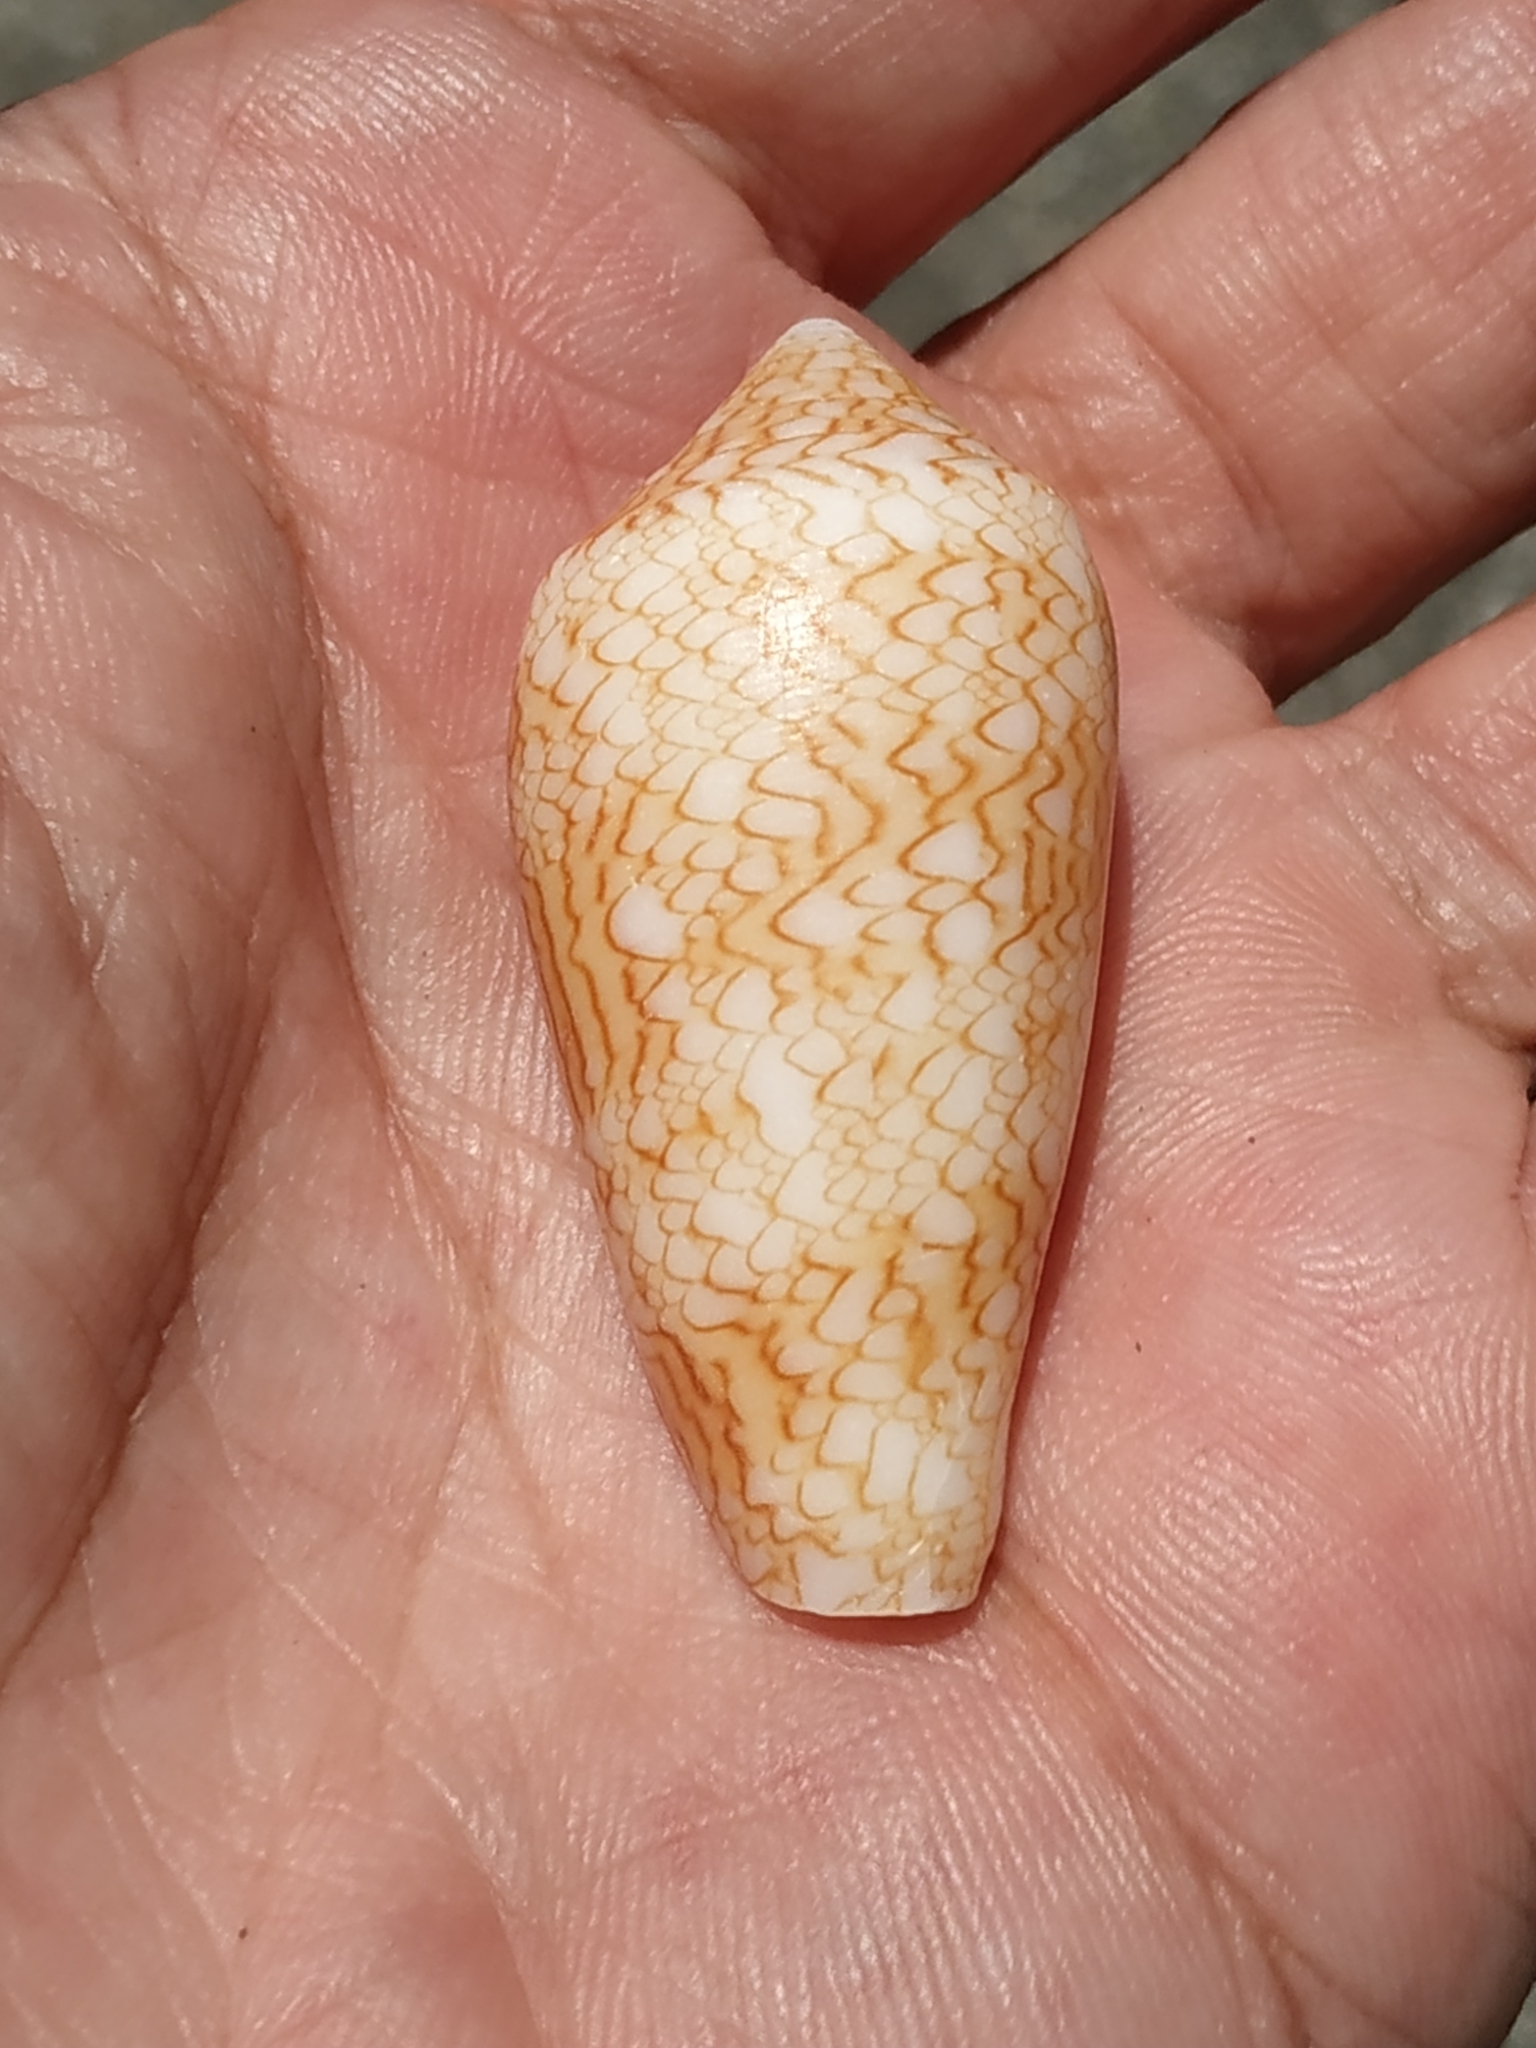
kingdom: Animalia
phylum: Mollusca
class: Gastropoda
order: Neogastropoda
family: Conidae
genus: Conus
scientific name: Conus textile
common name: Cloth-of-gold cone
